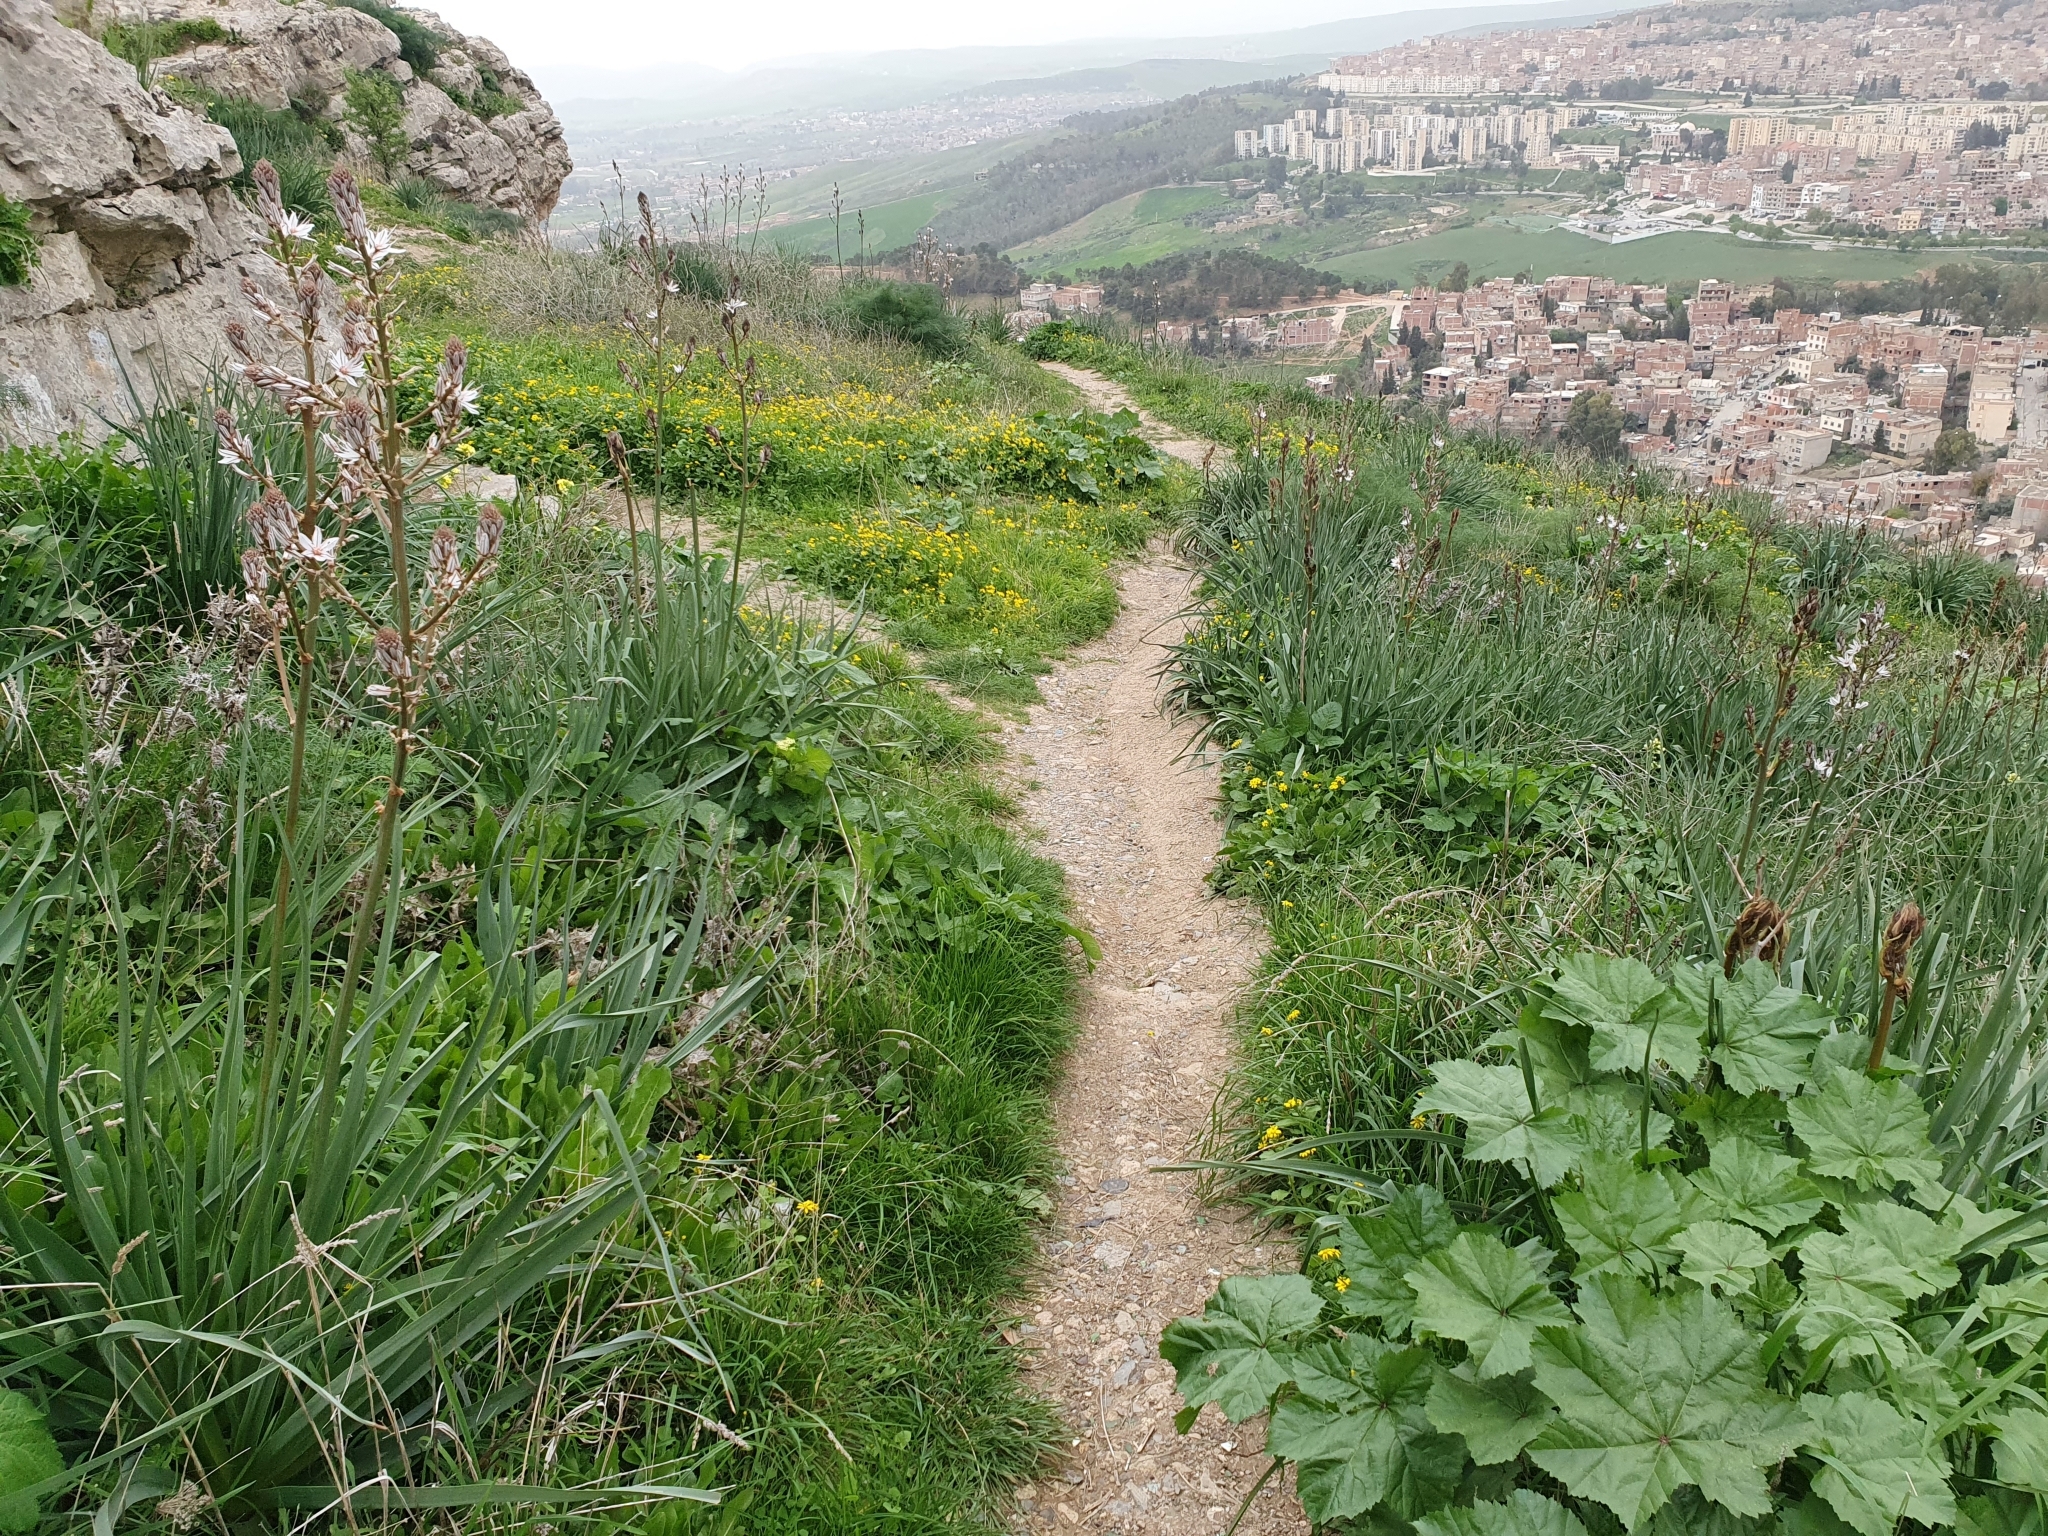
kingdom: Plantae
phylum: Tracheophyta
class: Liliopsida
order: Asparagales
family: Asphodelaceae
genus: Asphodelus
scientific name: Asphodelus ramosus
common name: Silverrod
